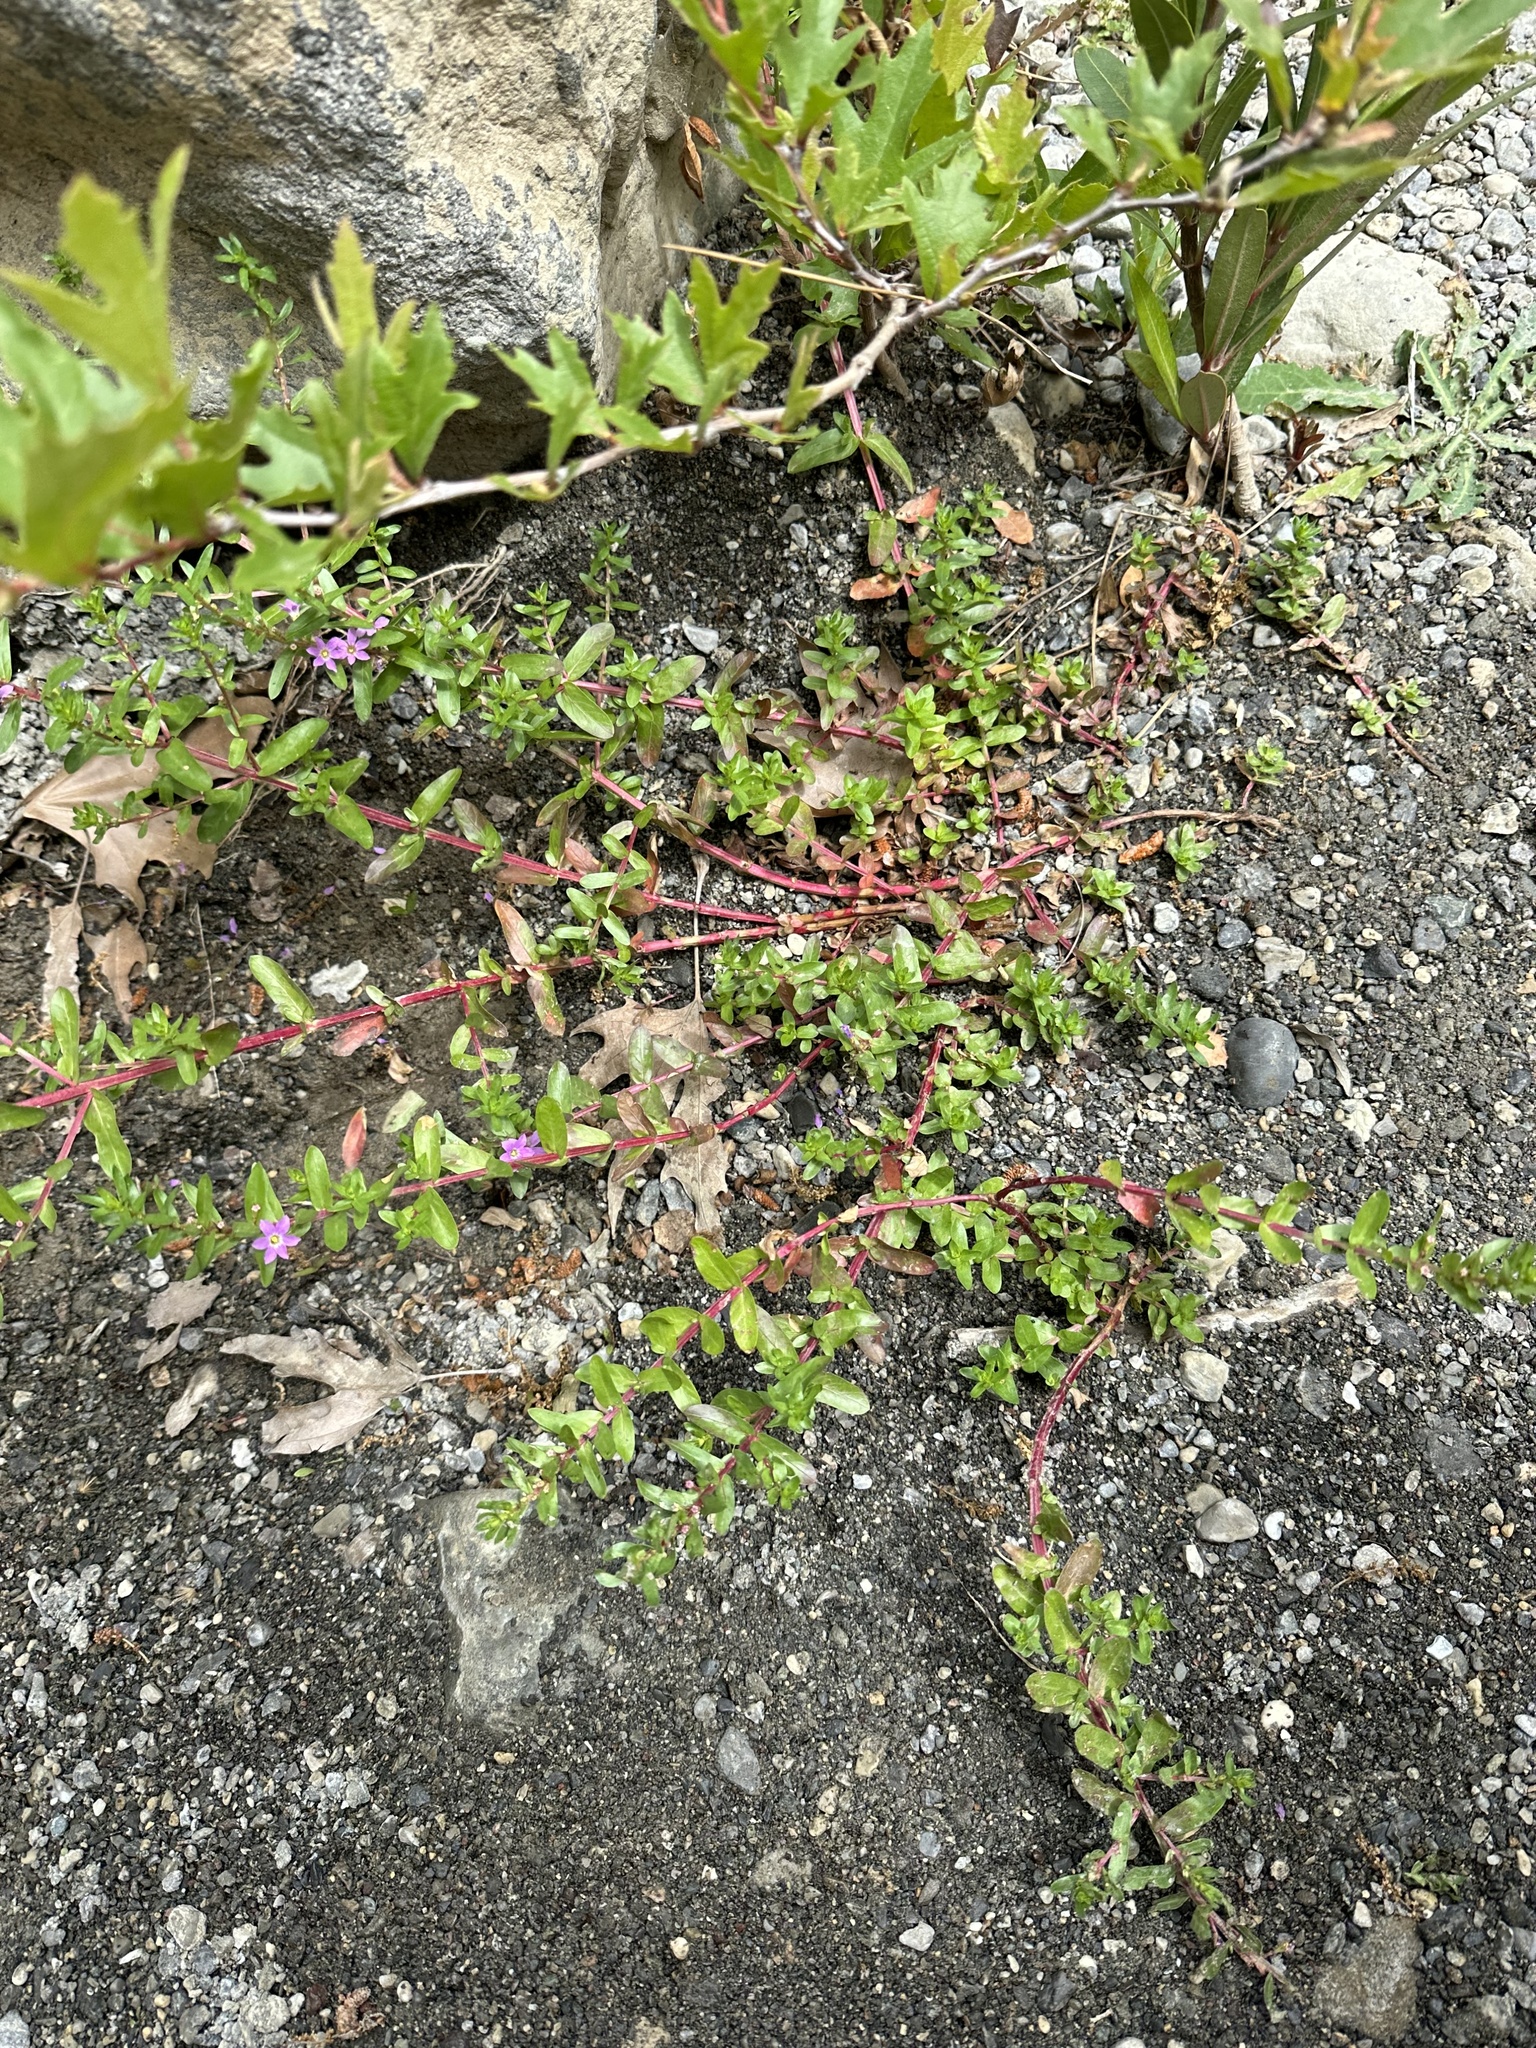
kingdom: Plantae
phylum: Tracheophyta
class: Magnoliopsida
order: Myrtales
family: Lythraceae
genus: Lythrum
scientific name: Lythrum junceum
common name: False grass-poly
